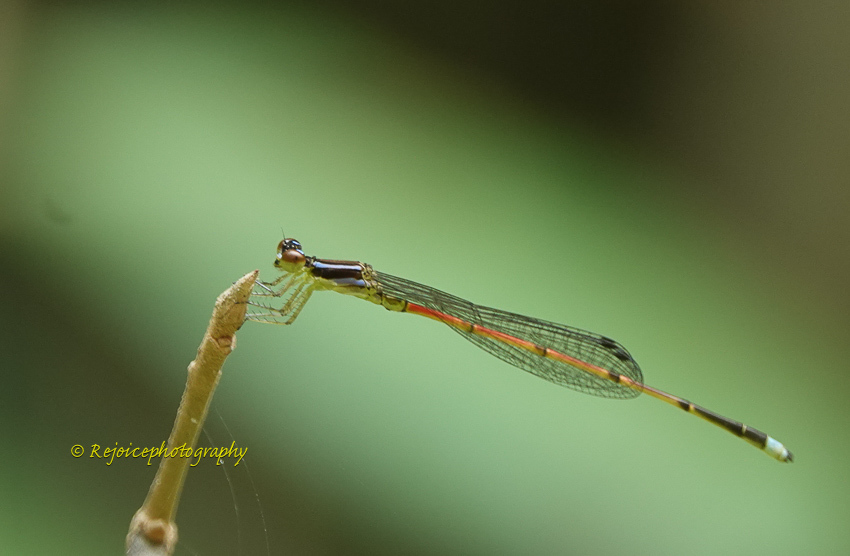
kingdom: Animalia
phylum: Arthropoda
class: Insecta
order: Odonata
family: Coenagrionidae
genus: Mortonagrion
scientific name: Mortonagrion aborense
